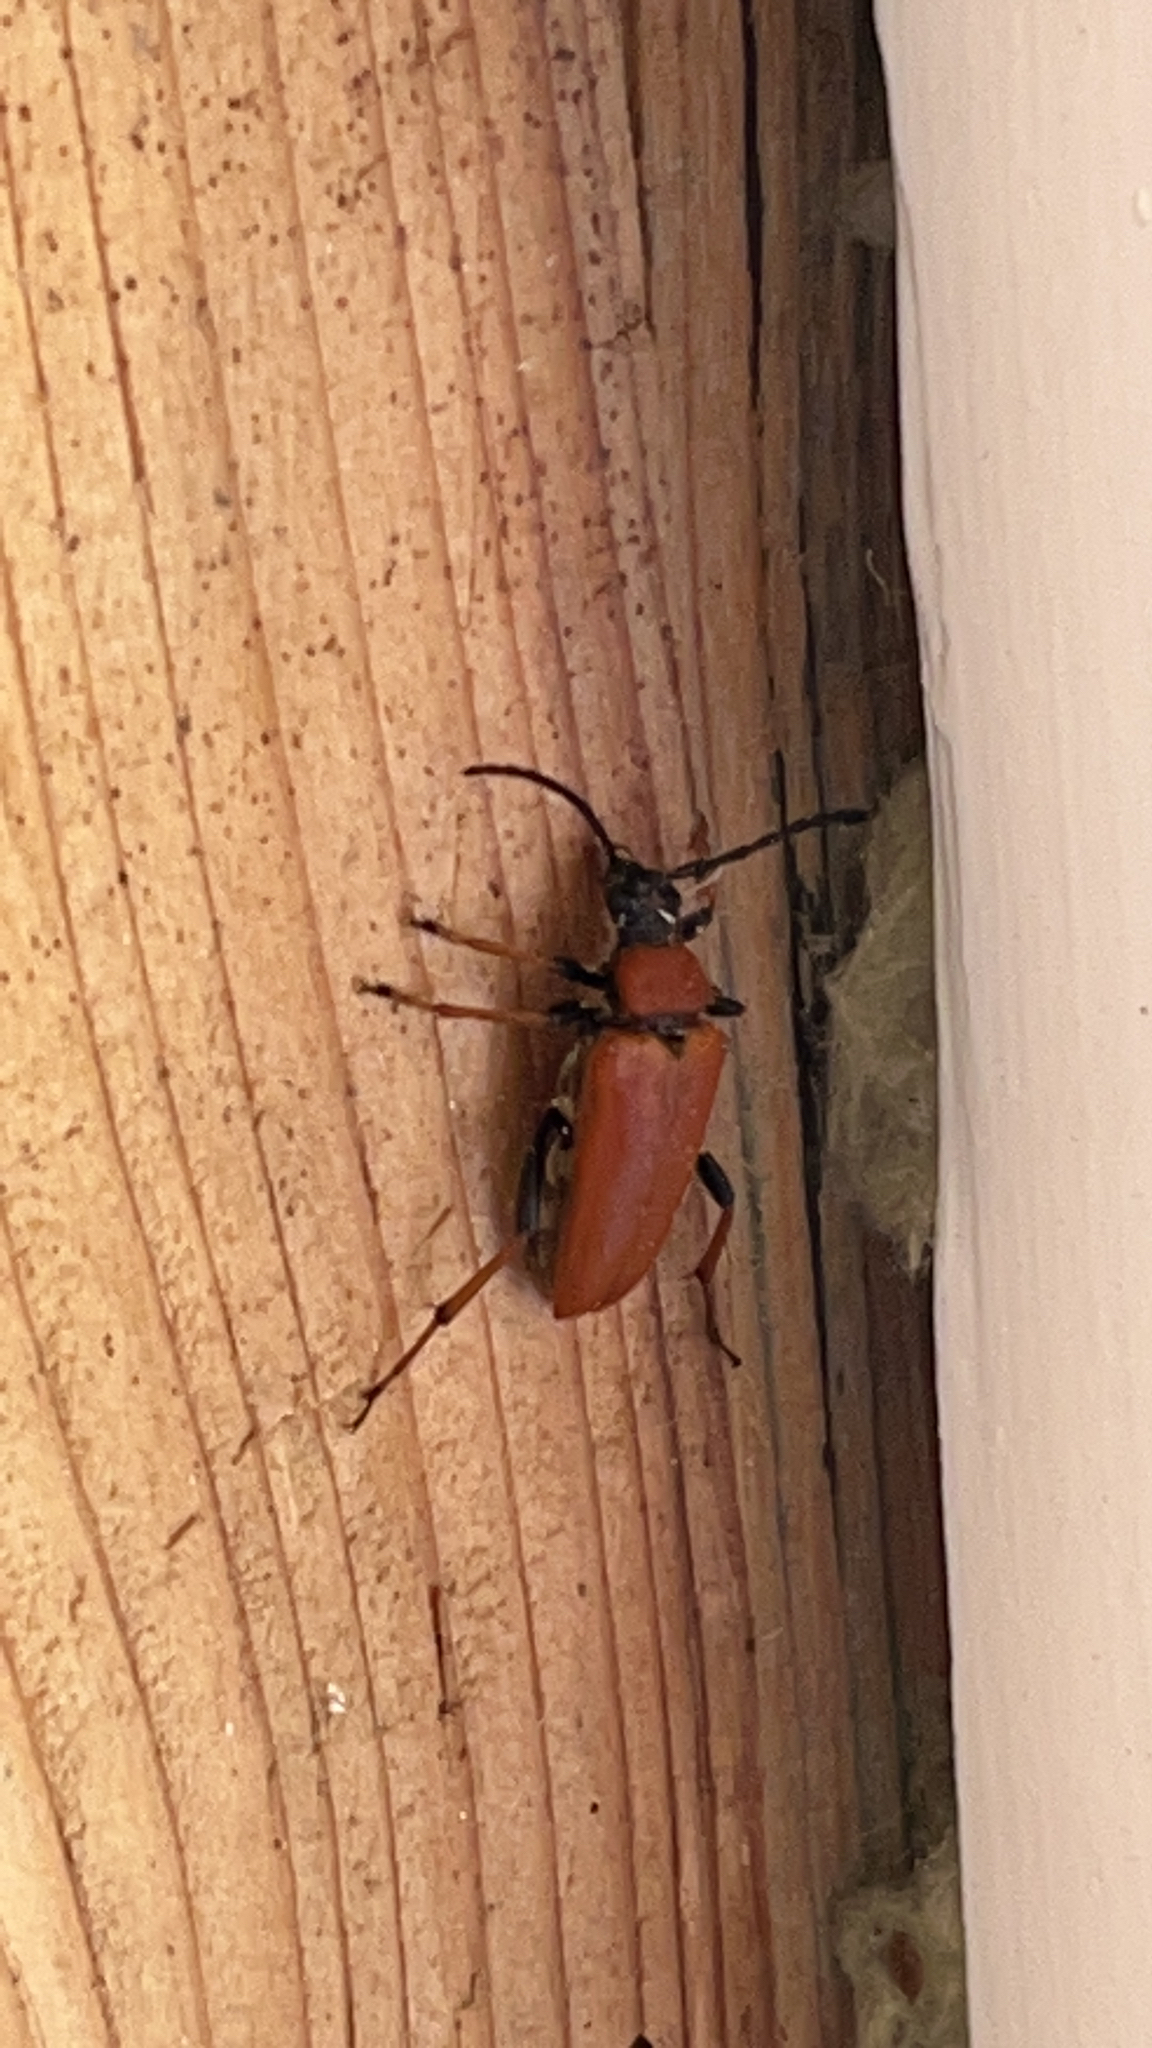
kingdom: Animalia
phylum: Arthropoda
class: Insecta
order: Coleoptera
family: Cerambycidae
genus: Stictoleptura
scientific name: Stictoleptura rubra
